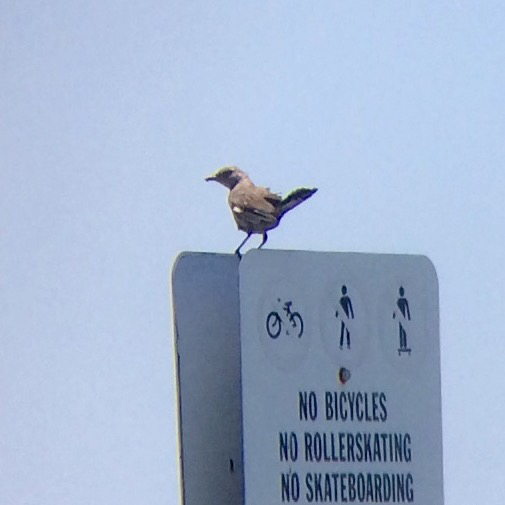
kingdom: Animalia
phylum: Chordata
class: Aves
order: Passeriformes
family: Mimidae
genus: Mimus
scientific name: Mimus polyglottos
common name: Northern mockingbird
